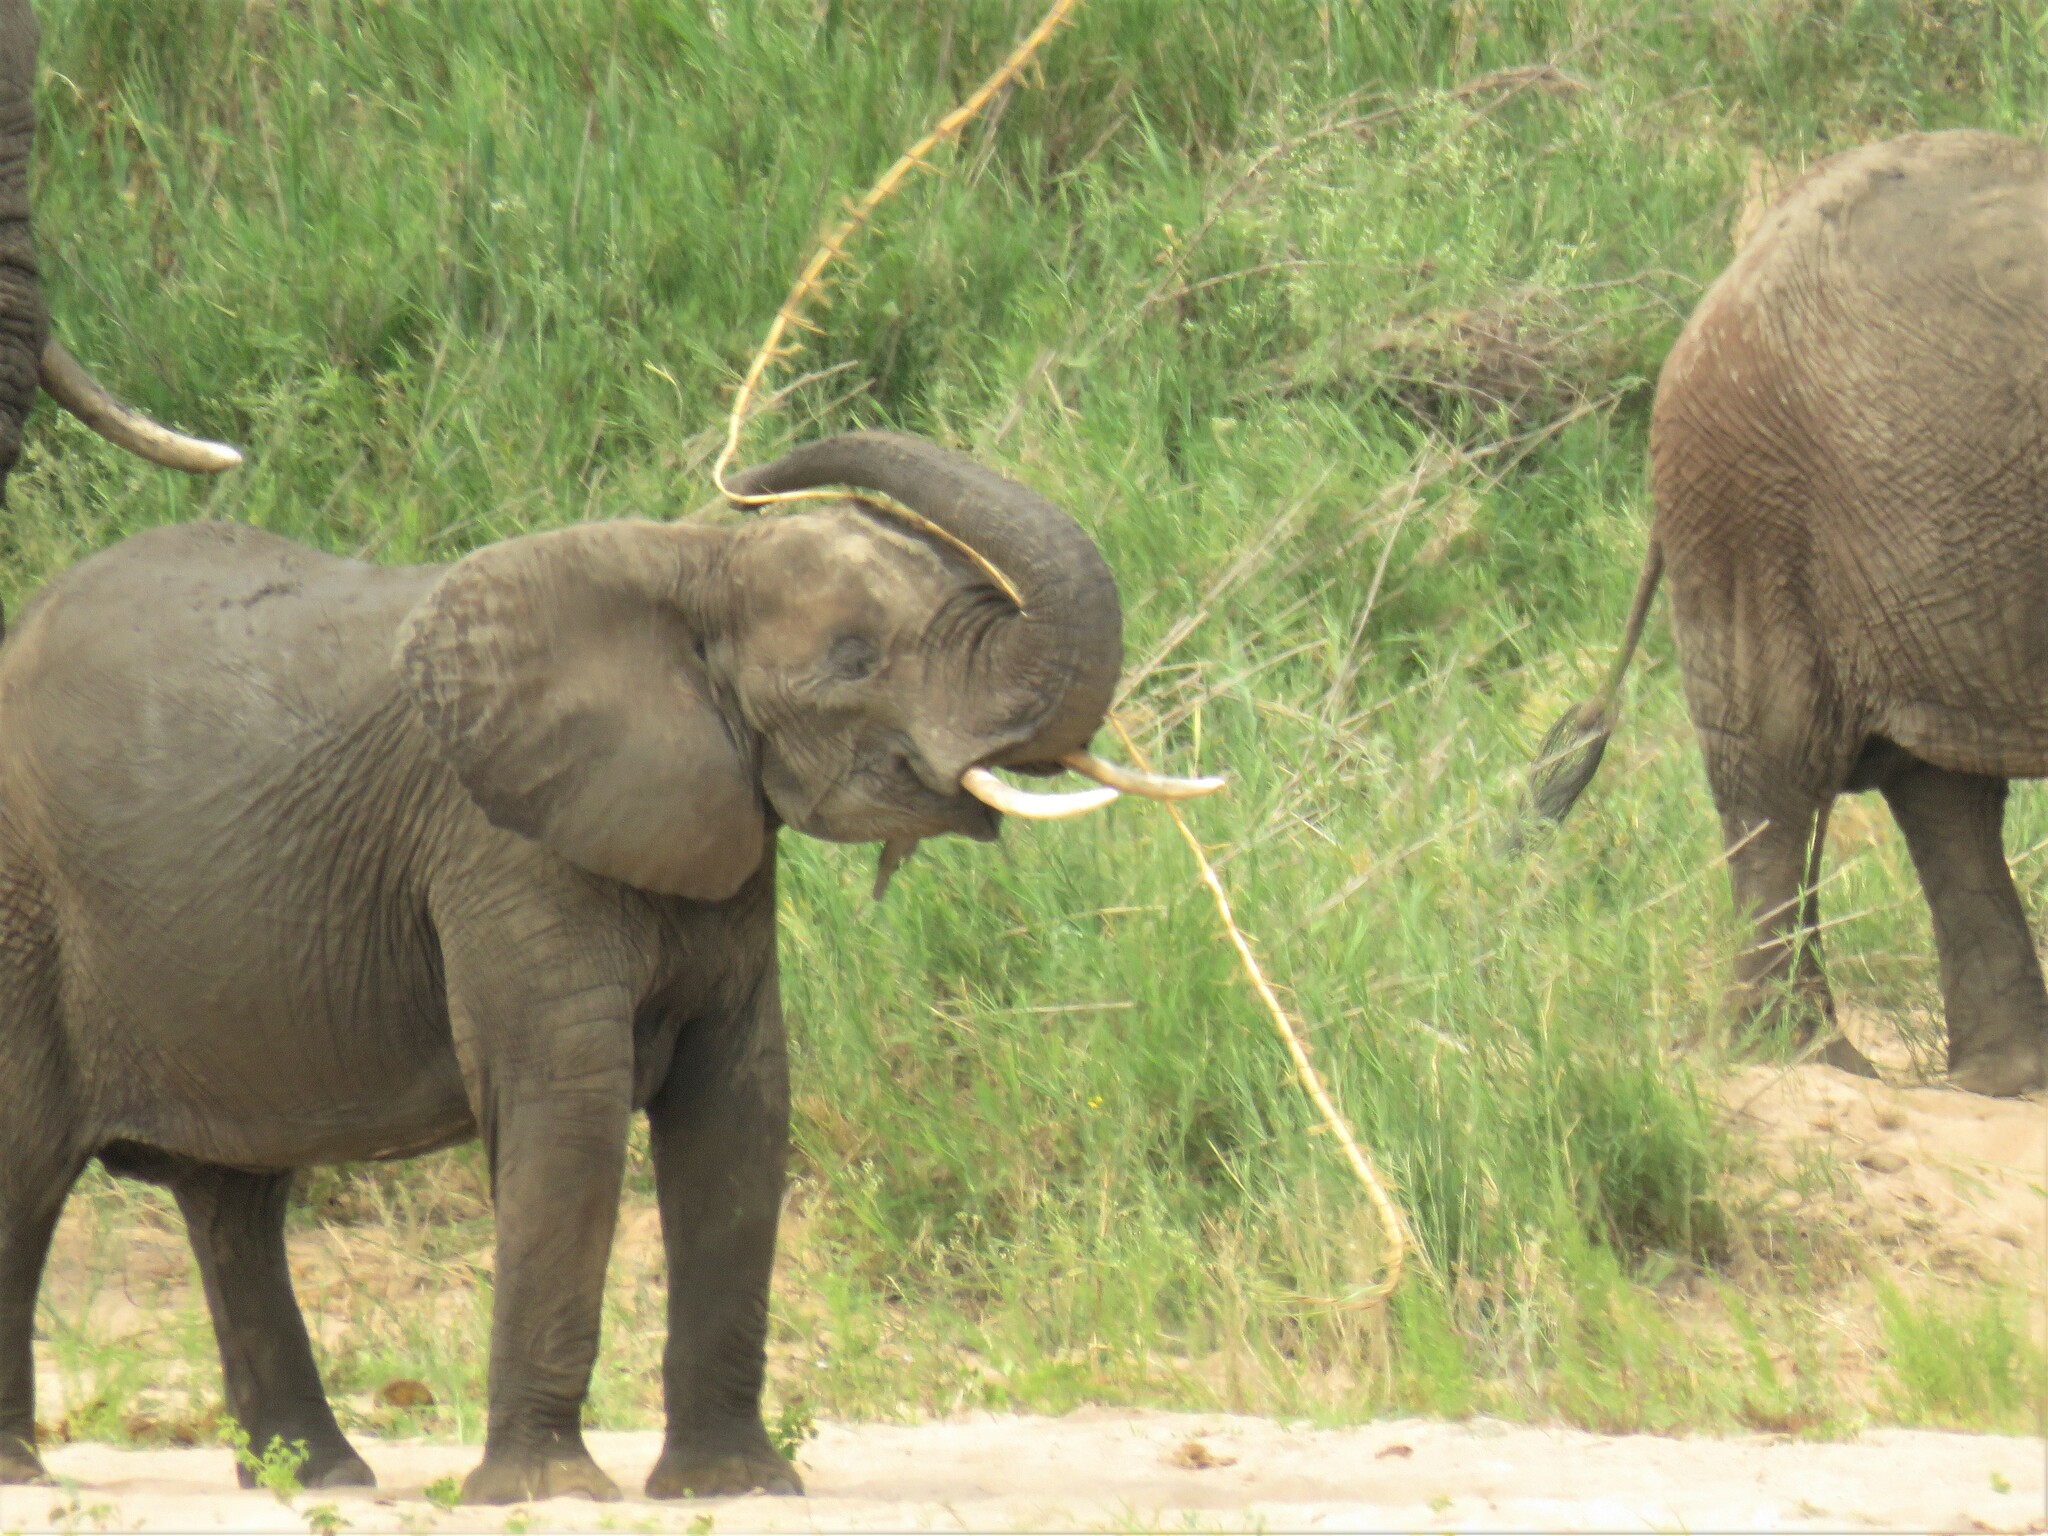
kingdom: Animalia
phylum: Chordata
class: Mammalia
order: Proboscidea
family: Elephantidae
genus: Loxodonta
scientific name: Loxodonta africana
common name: African elephant
